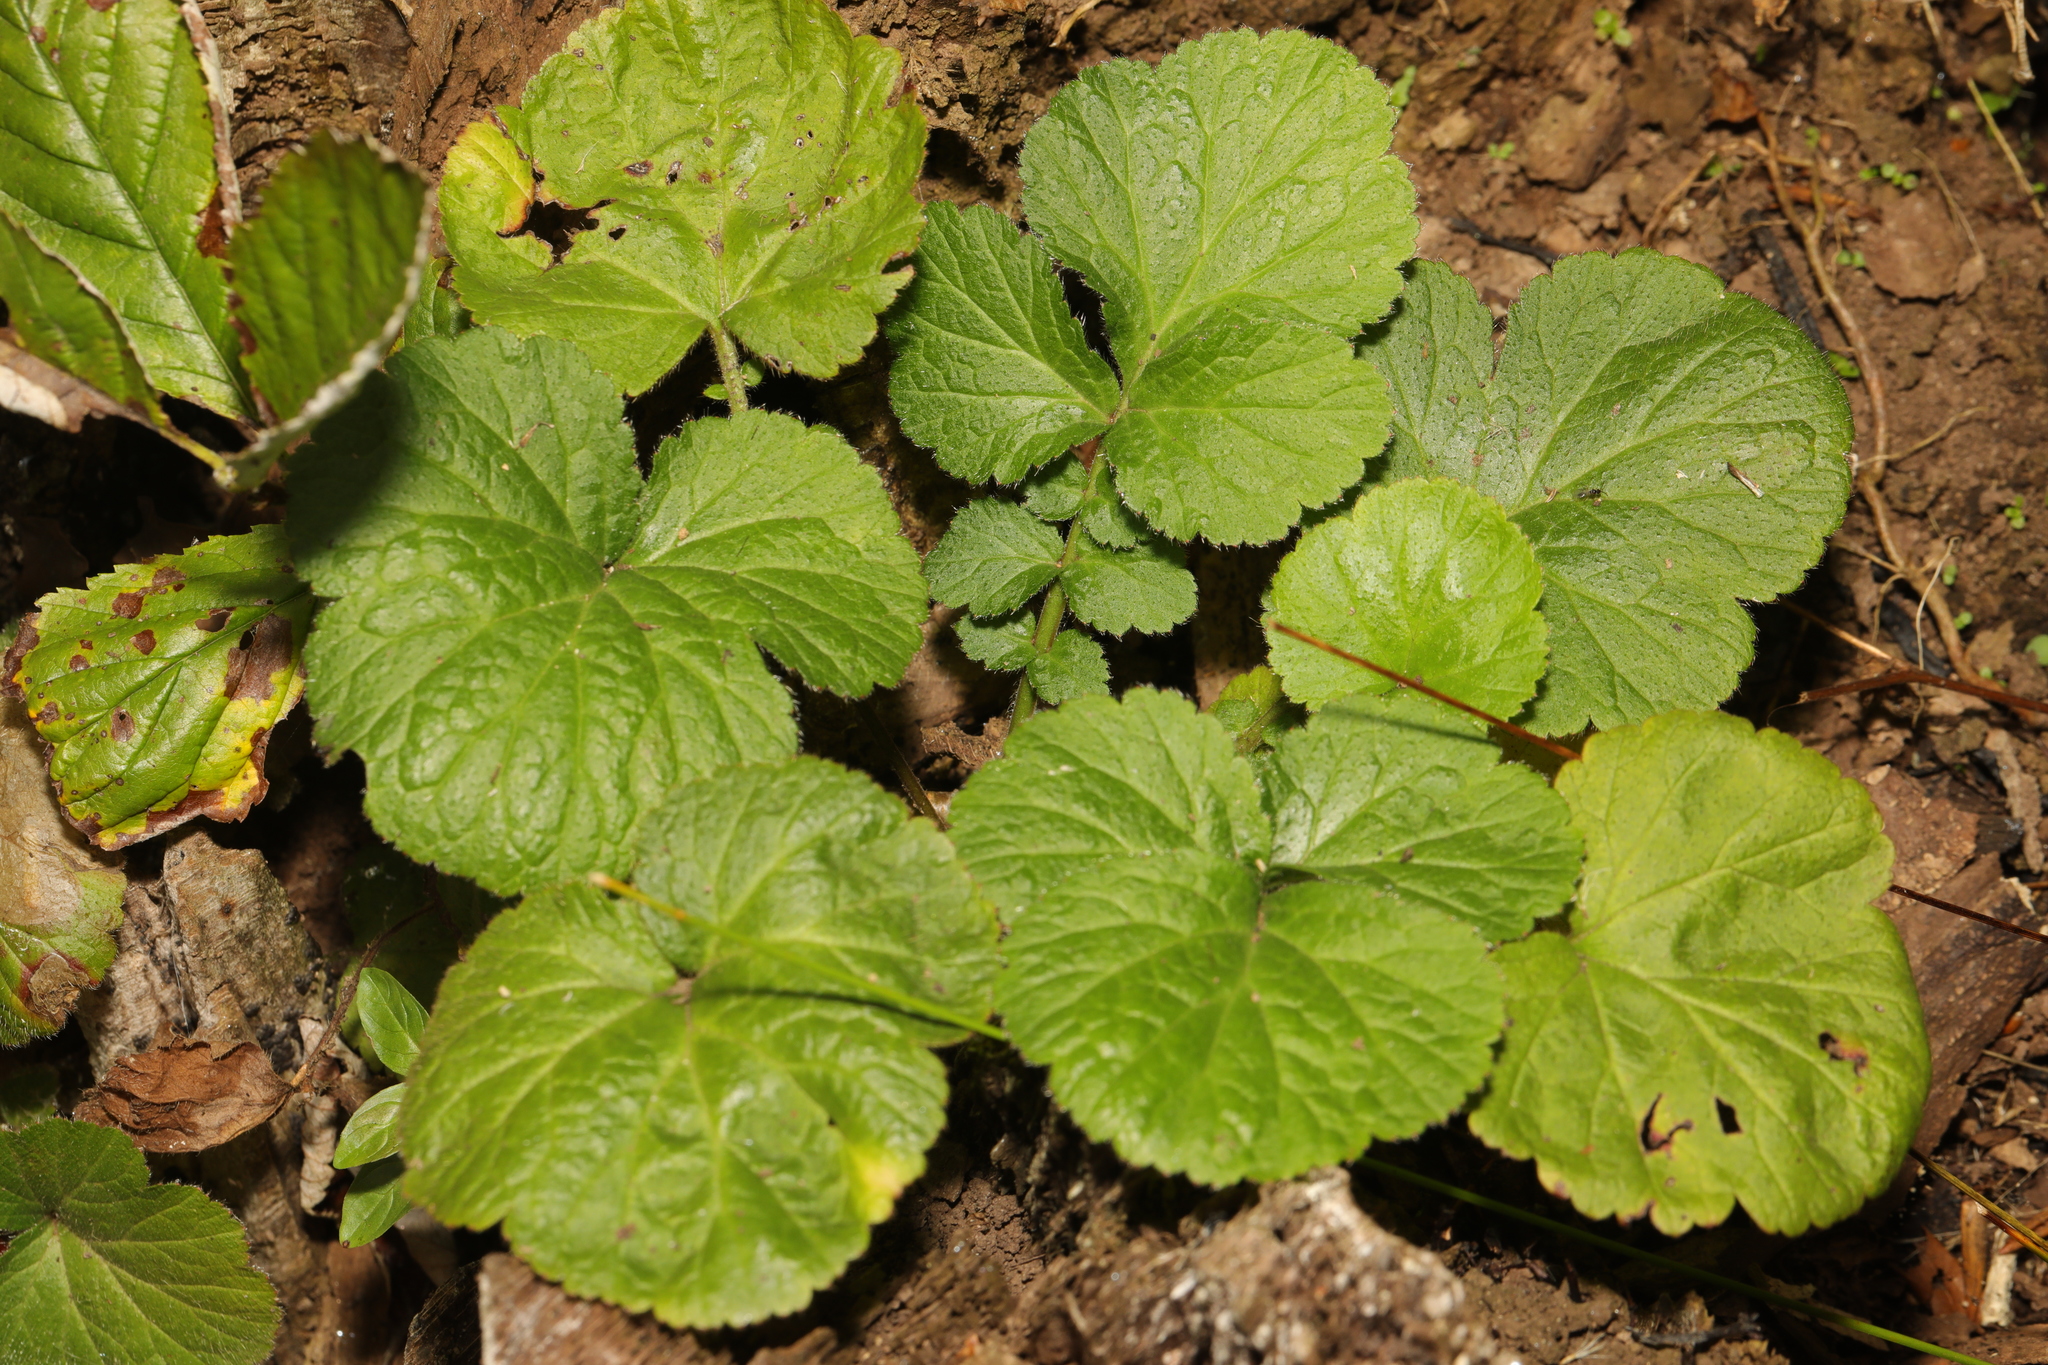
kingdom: Plantae
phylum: Tracheophyta
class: Magnoliopsida
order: Rosales
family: Rosaceae
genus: Geum
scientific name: Geum urbanum
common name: Wood avens
